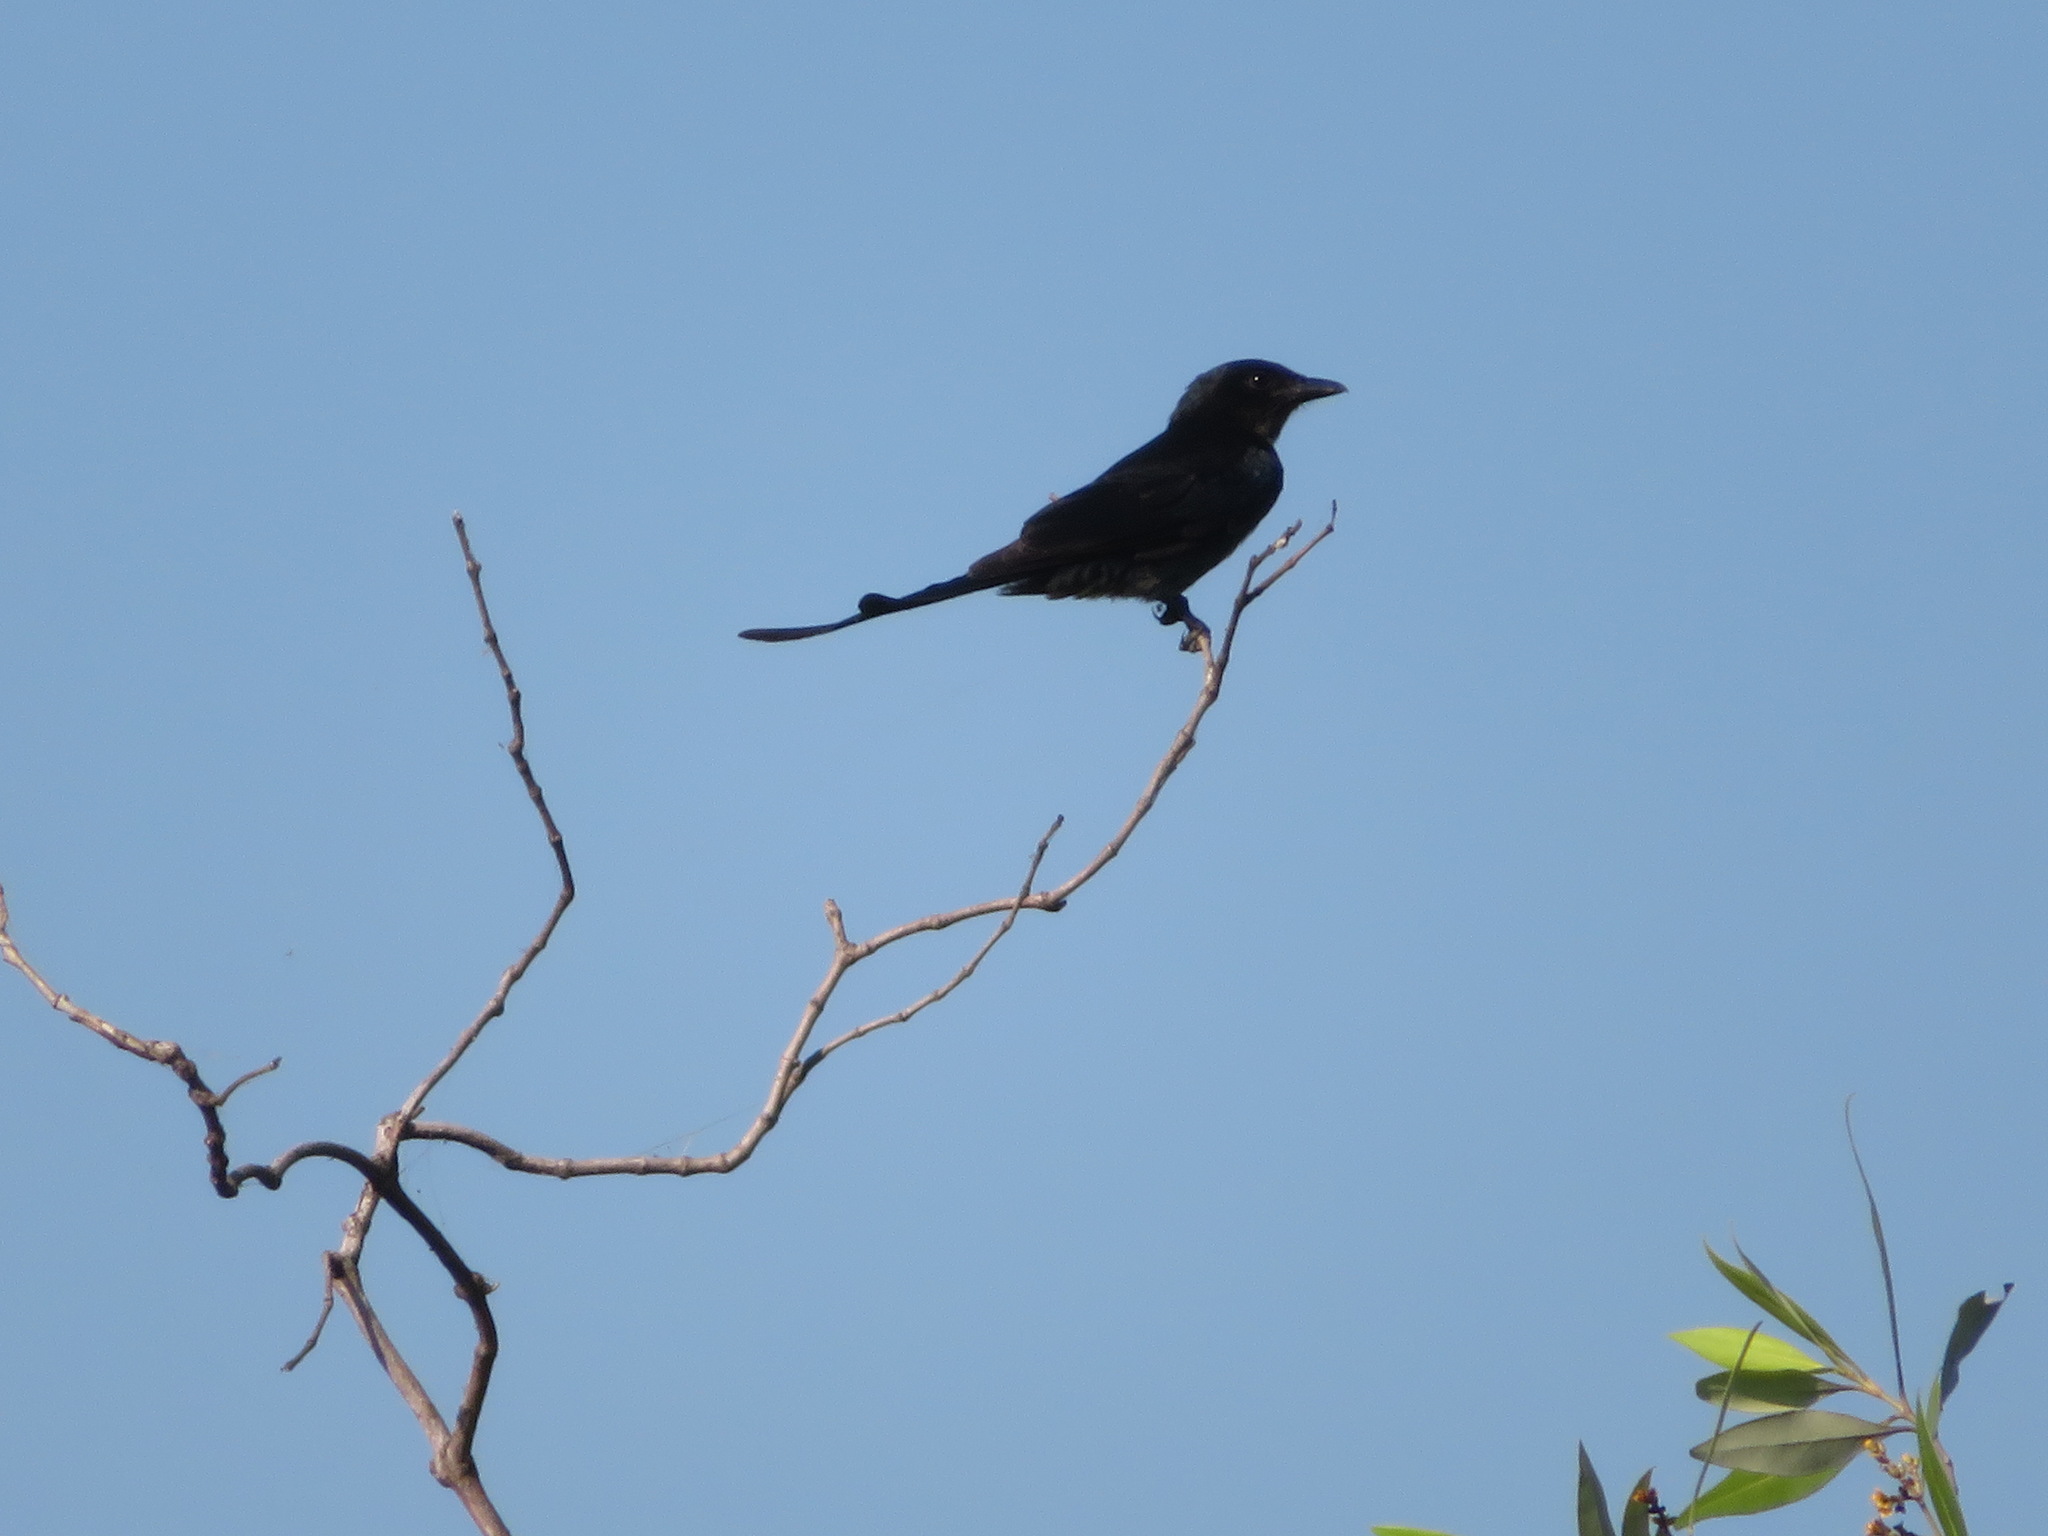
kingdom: Animalia
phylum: Chordata
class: Aves
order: Passeriformes
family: Dicruridae
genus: Dicrurus
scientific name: Dicrurus macrocercus
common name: Black drongo
